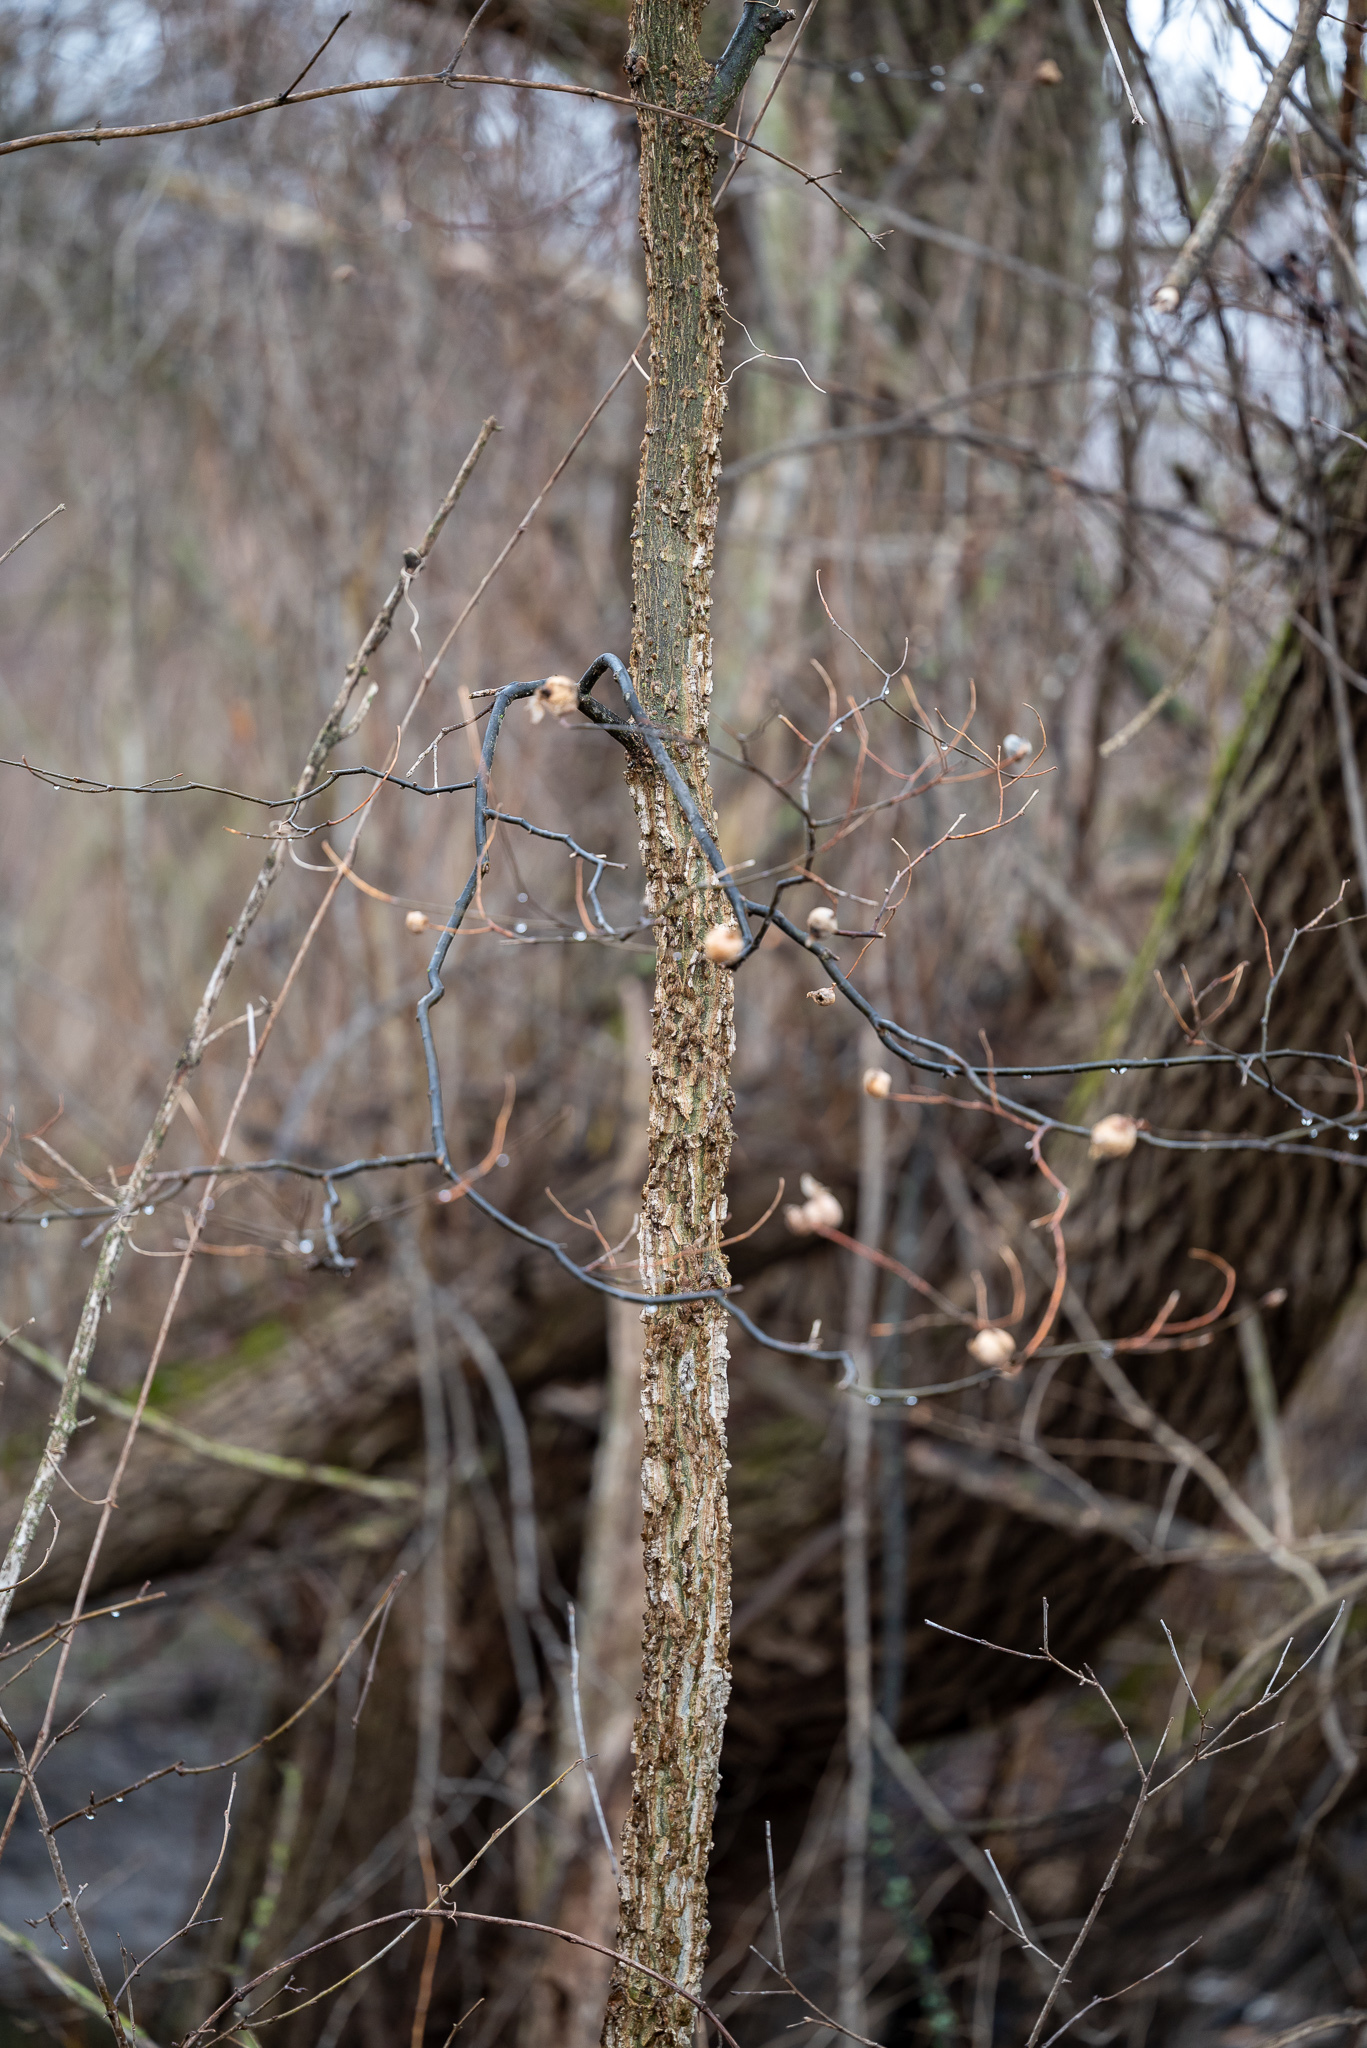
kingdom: Plantae
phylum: Tracheophyta
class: Magnoliopsida
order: Rosales
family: Cannabaceae
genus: Celtis
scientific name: Celtis occidentalis
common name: Common hackberry
